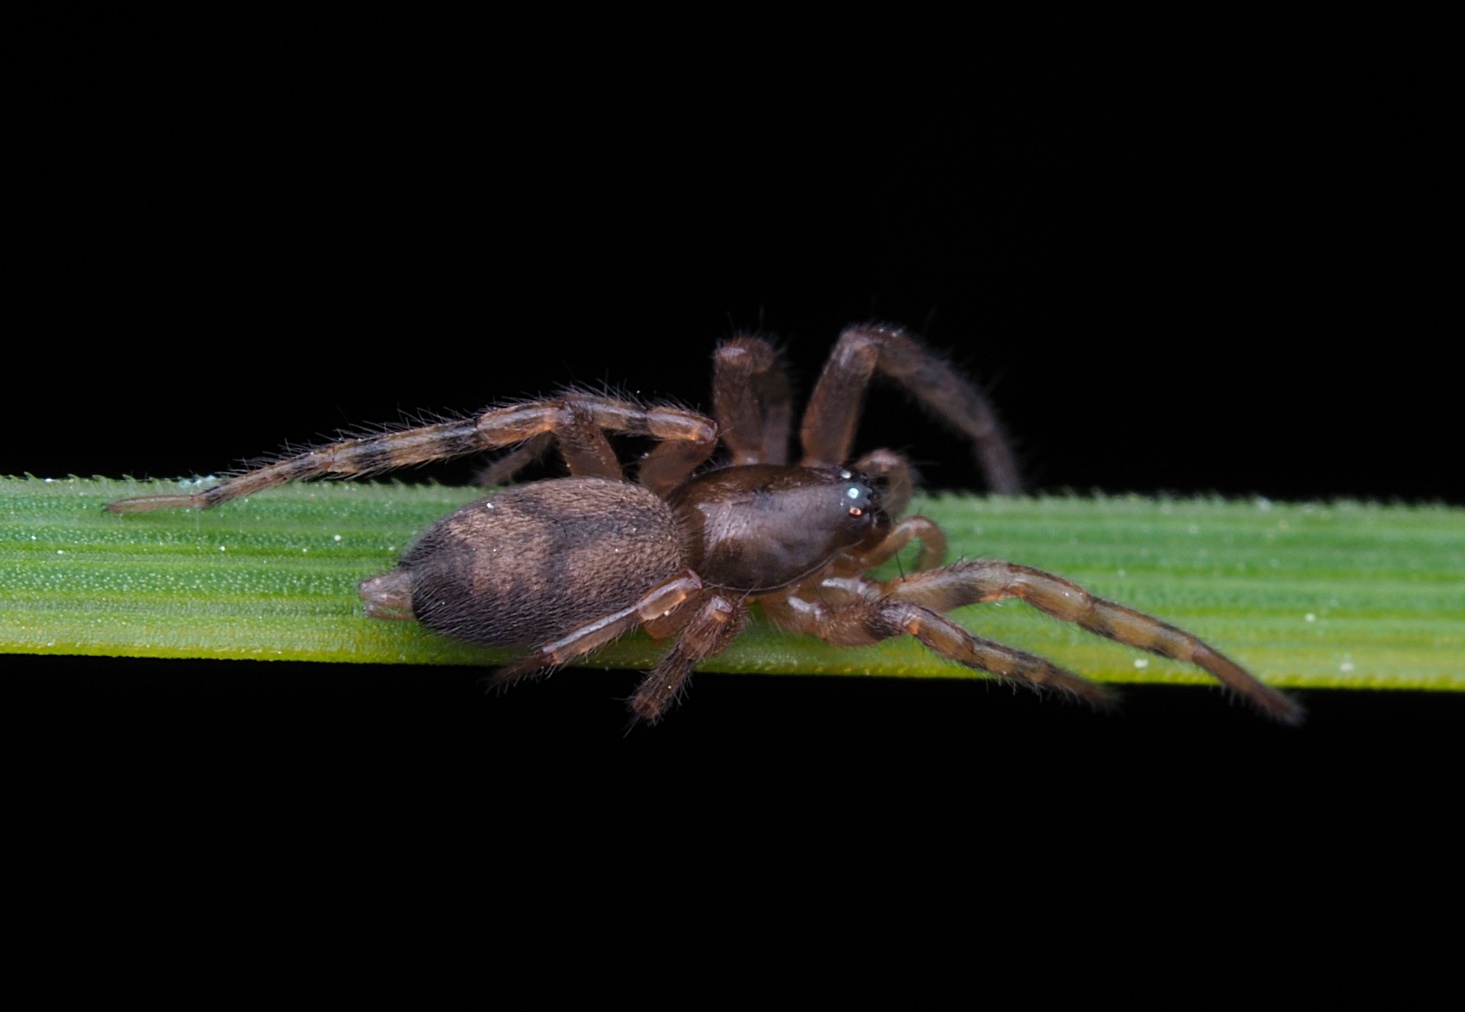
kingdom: Animalia
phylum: Arthropoda
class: Arachnida
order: Araneae
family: Gnaphosidae
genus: Intruda
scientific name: Intruda signata
